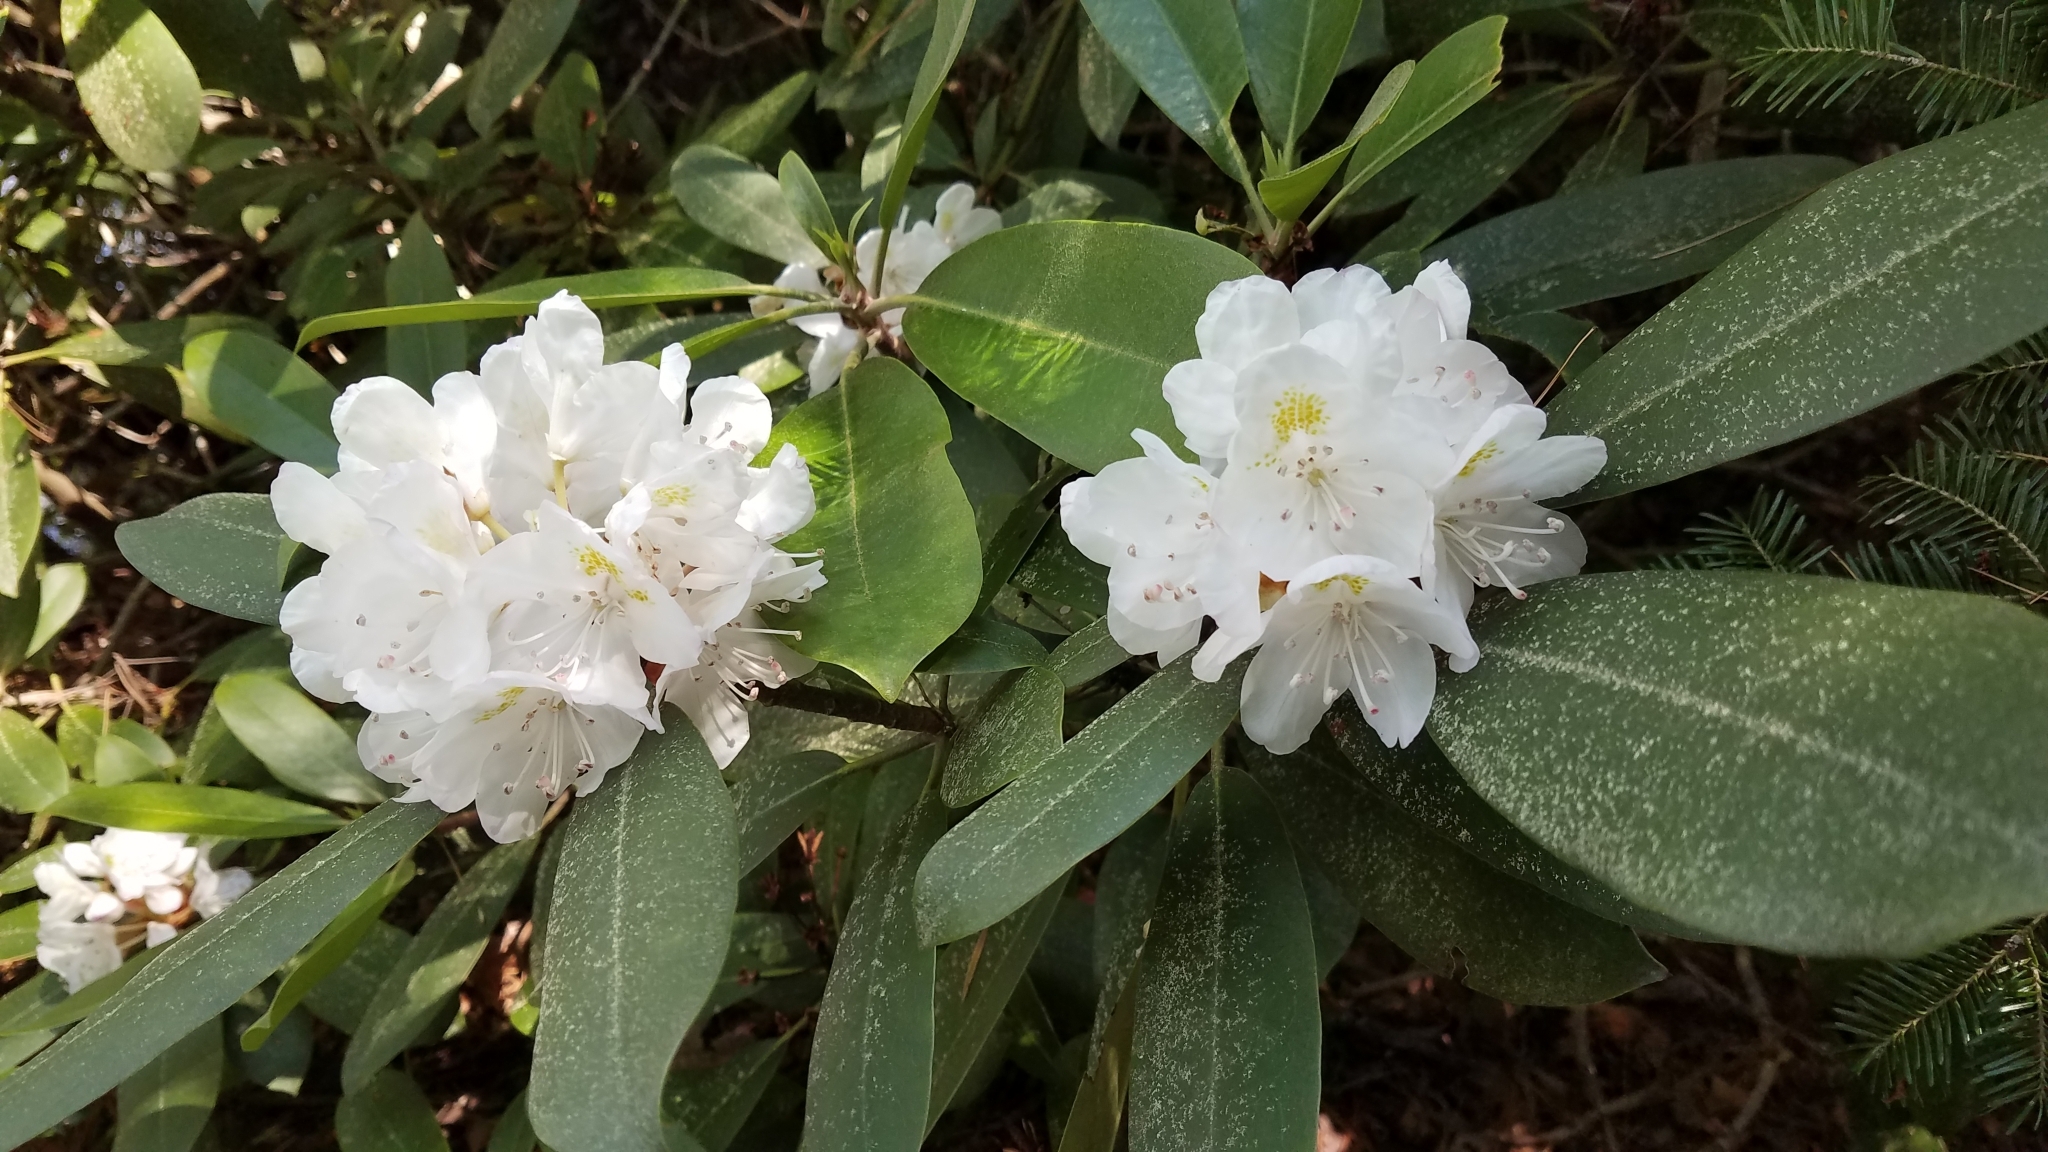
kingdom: Plantae
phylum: Tracheophyta
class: Magnoliopsida
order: Ericales
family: Ericaceae
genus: Rhododendron
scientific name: Rhododendron maximum
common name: Great rhododendron
